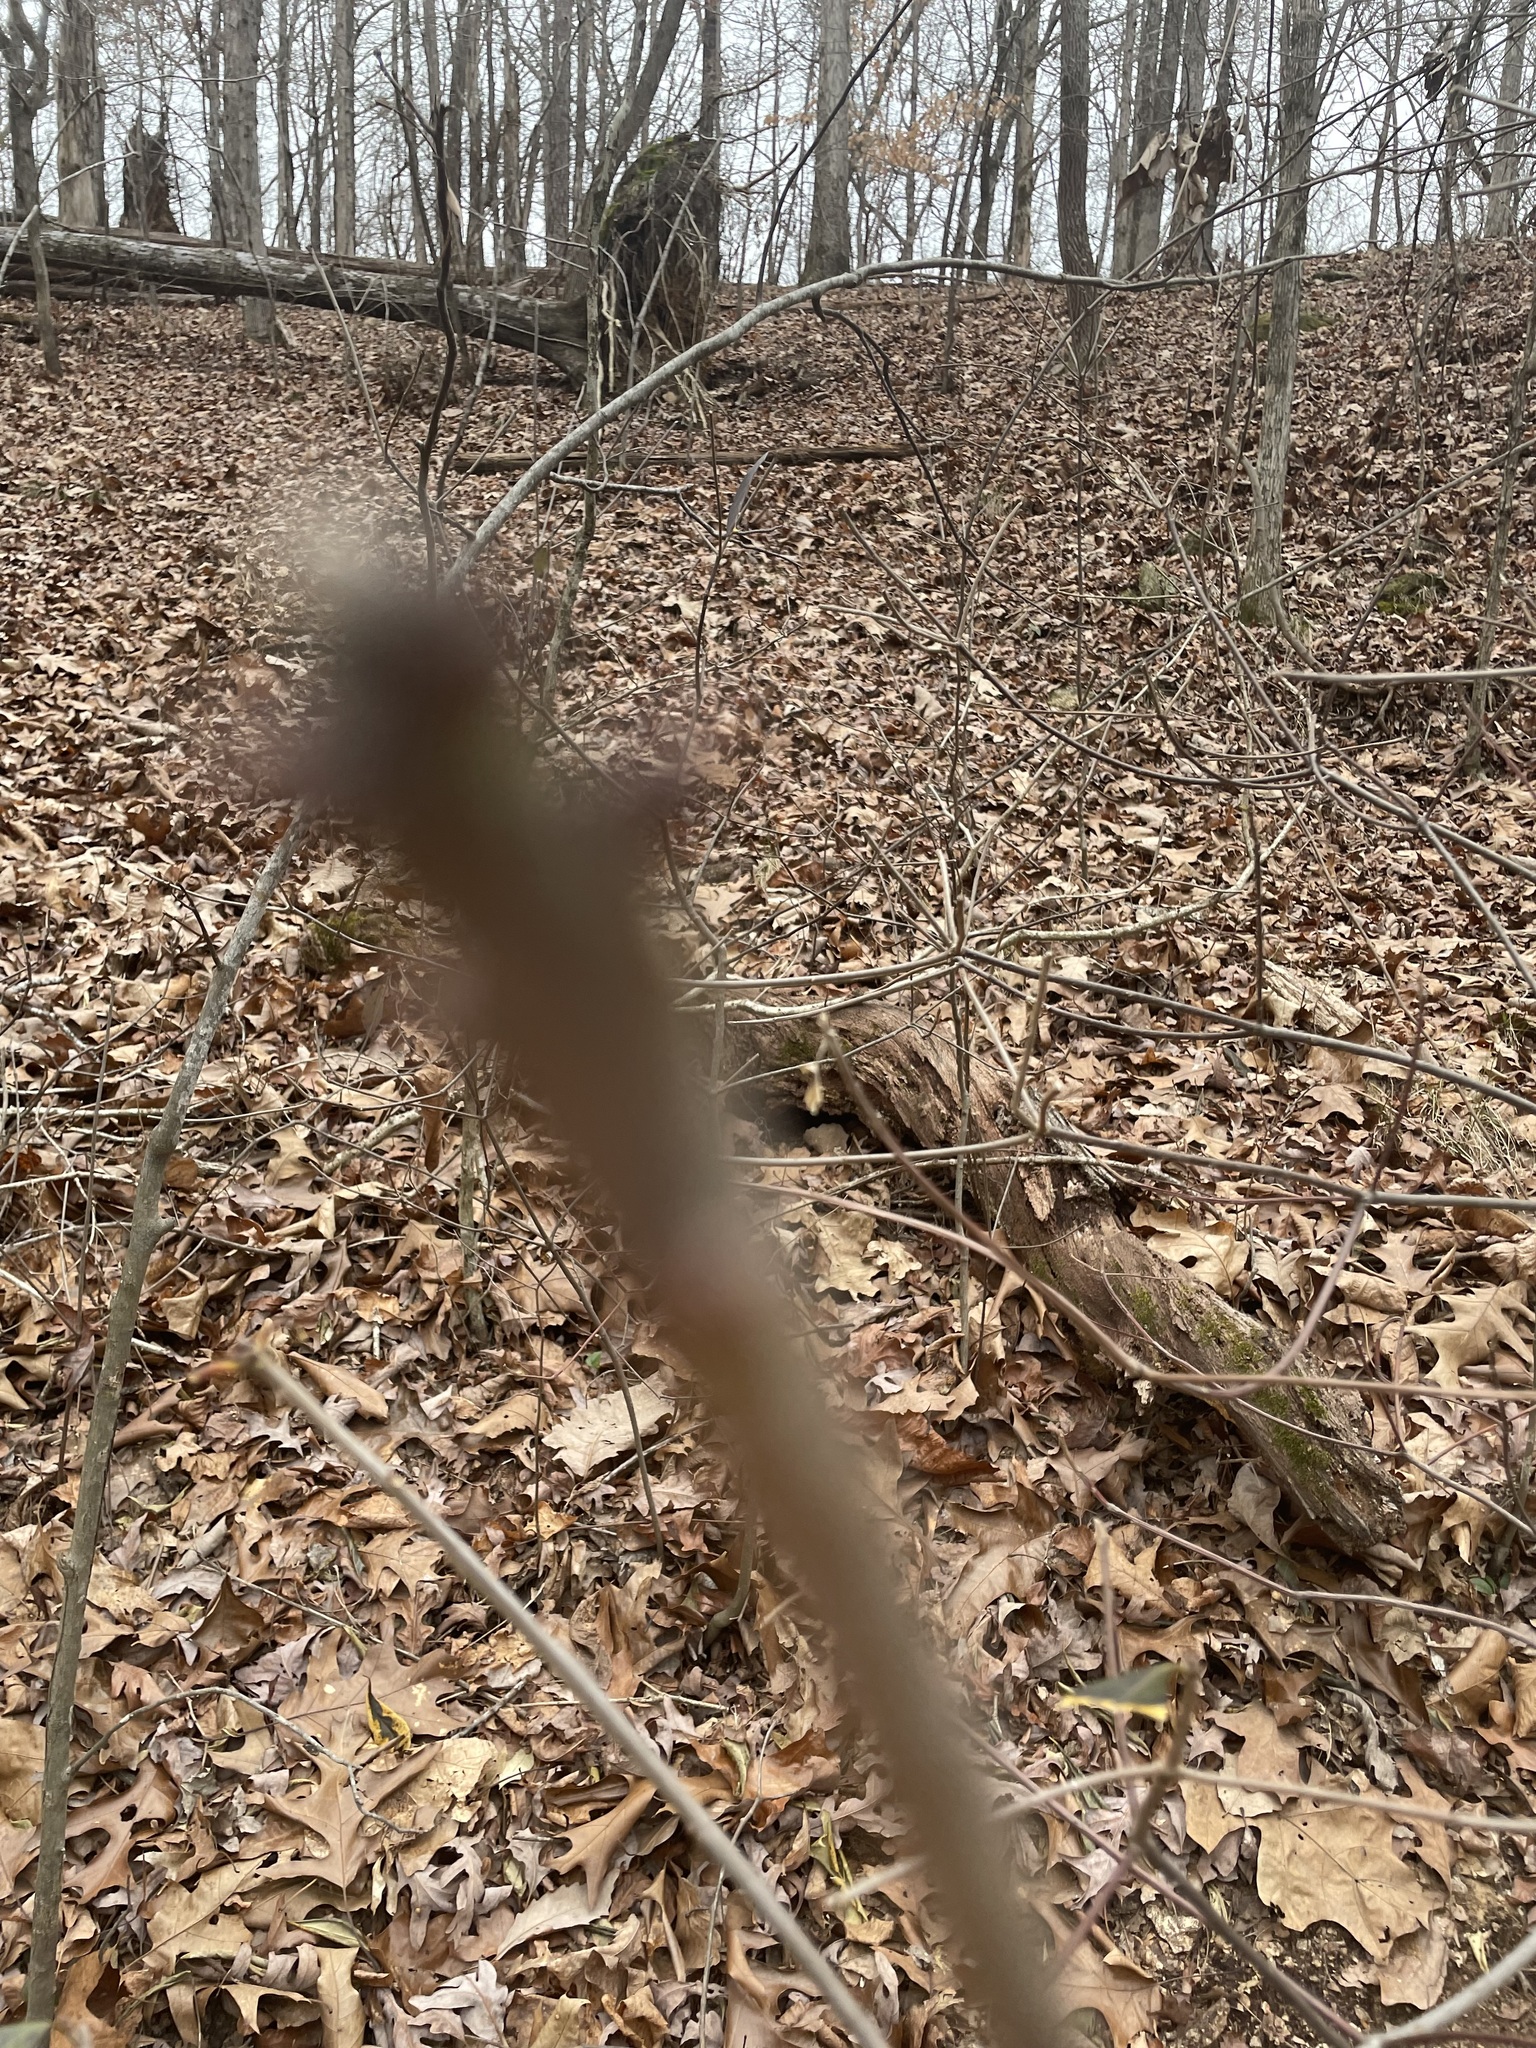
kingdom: Plantae
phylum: Tracheophyta
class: Magnoliopsida
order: Ericales
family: Symplocaceae
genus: Symplocos
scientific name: Symplocos tinctoria
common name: Horse-sugar
